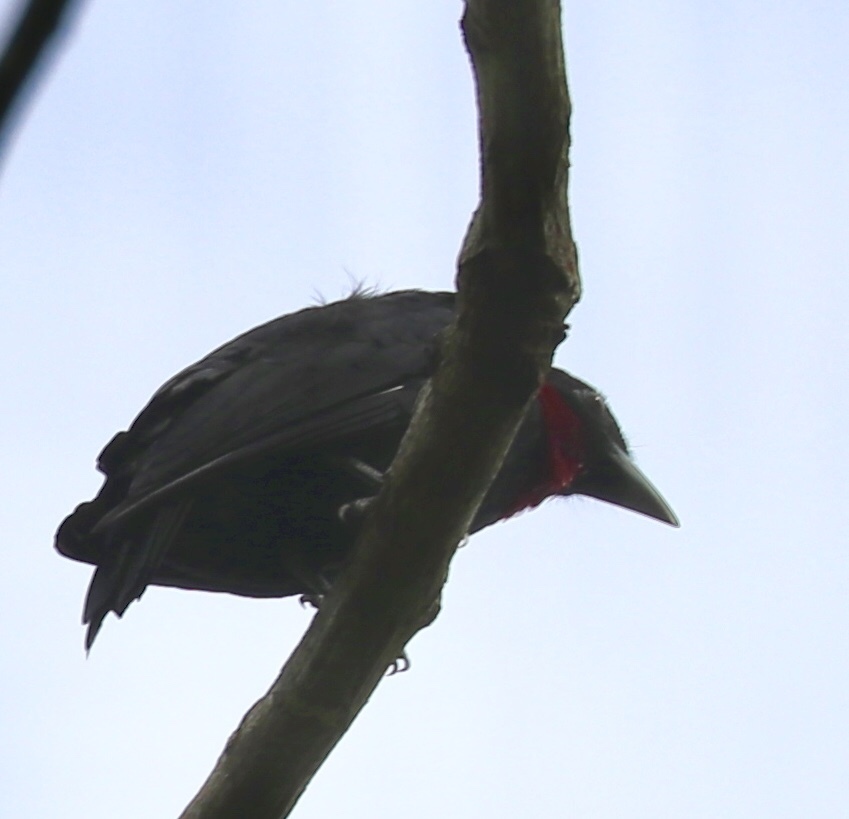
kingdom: Animalia
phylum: Chordata
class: Aves
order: Passeriformes
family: Cotingidae
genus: Querula
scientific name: Querula purpurata
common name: Purple-throated fruitcrow
